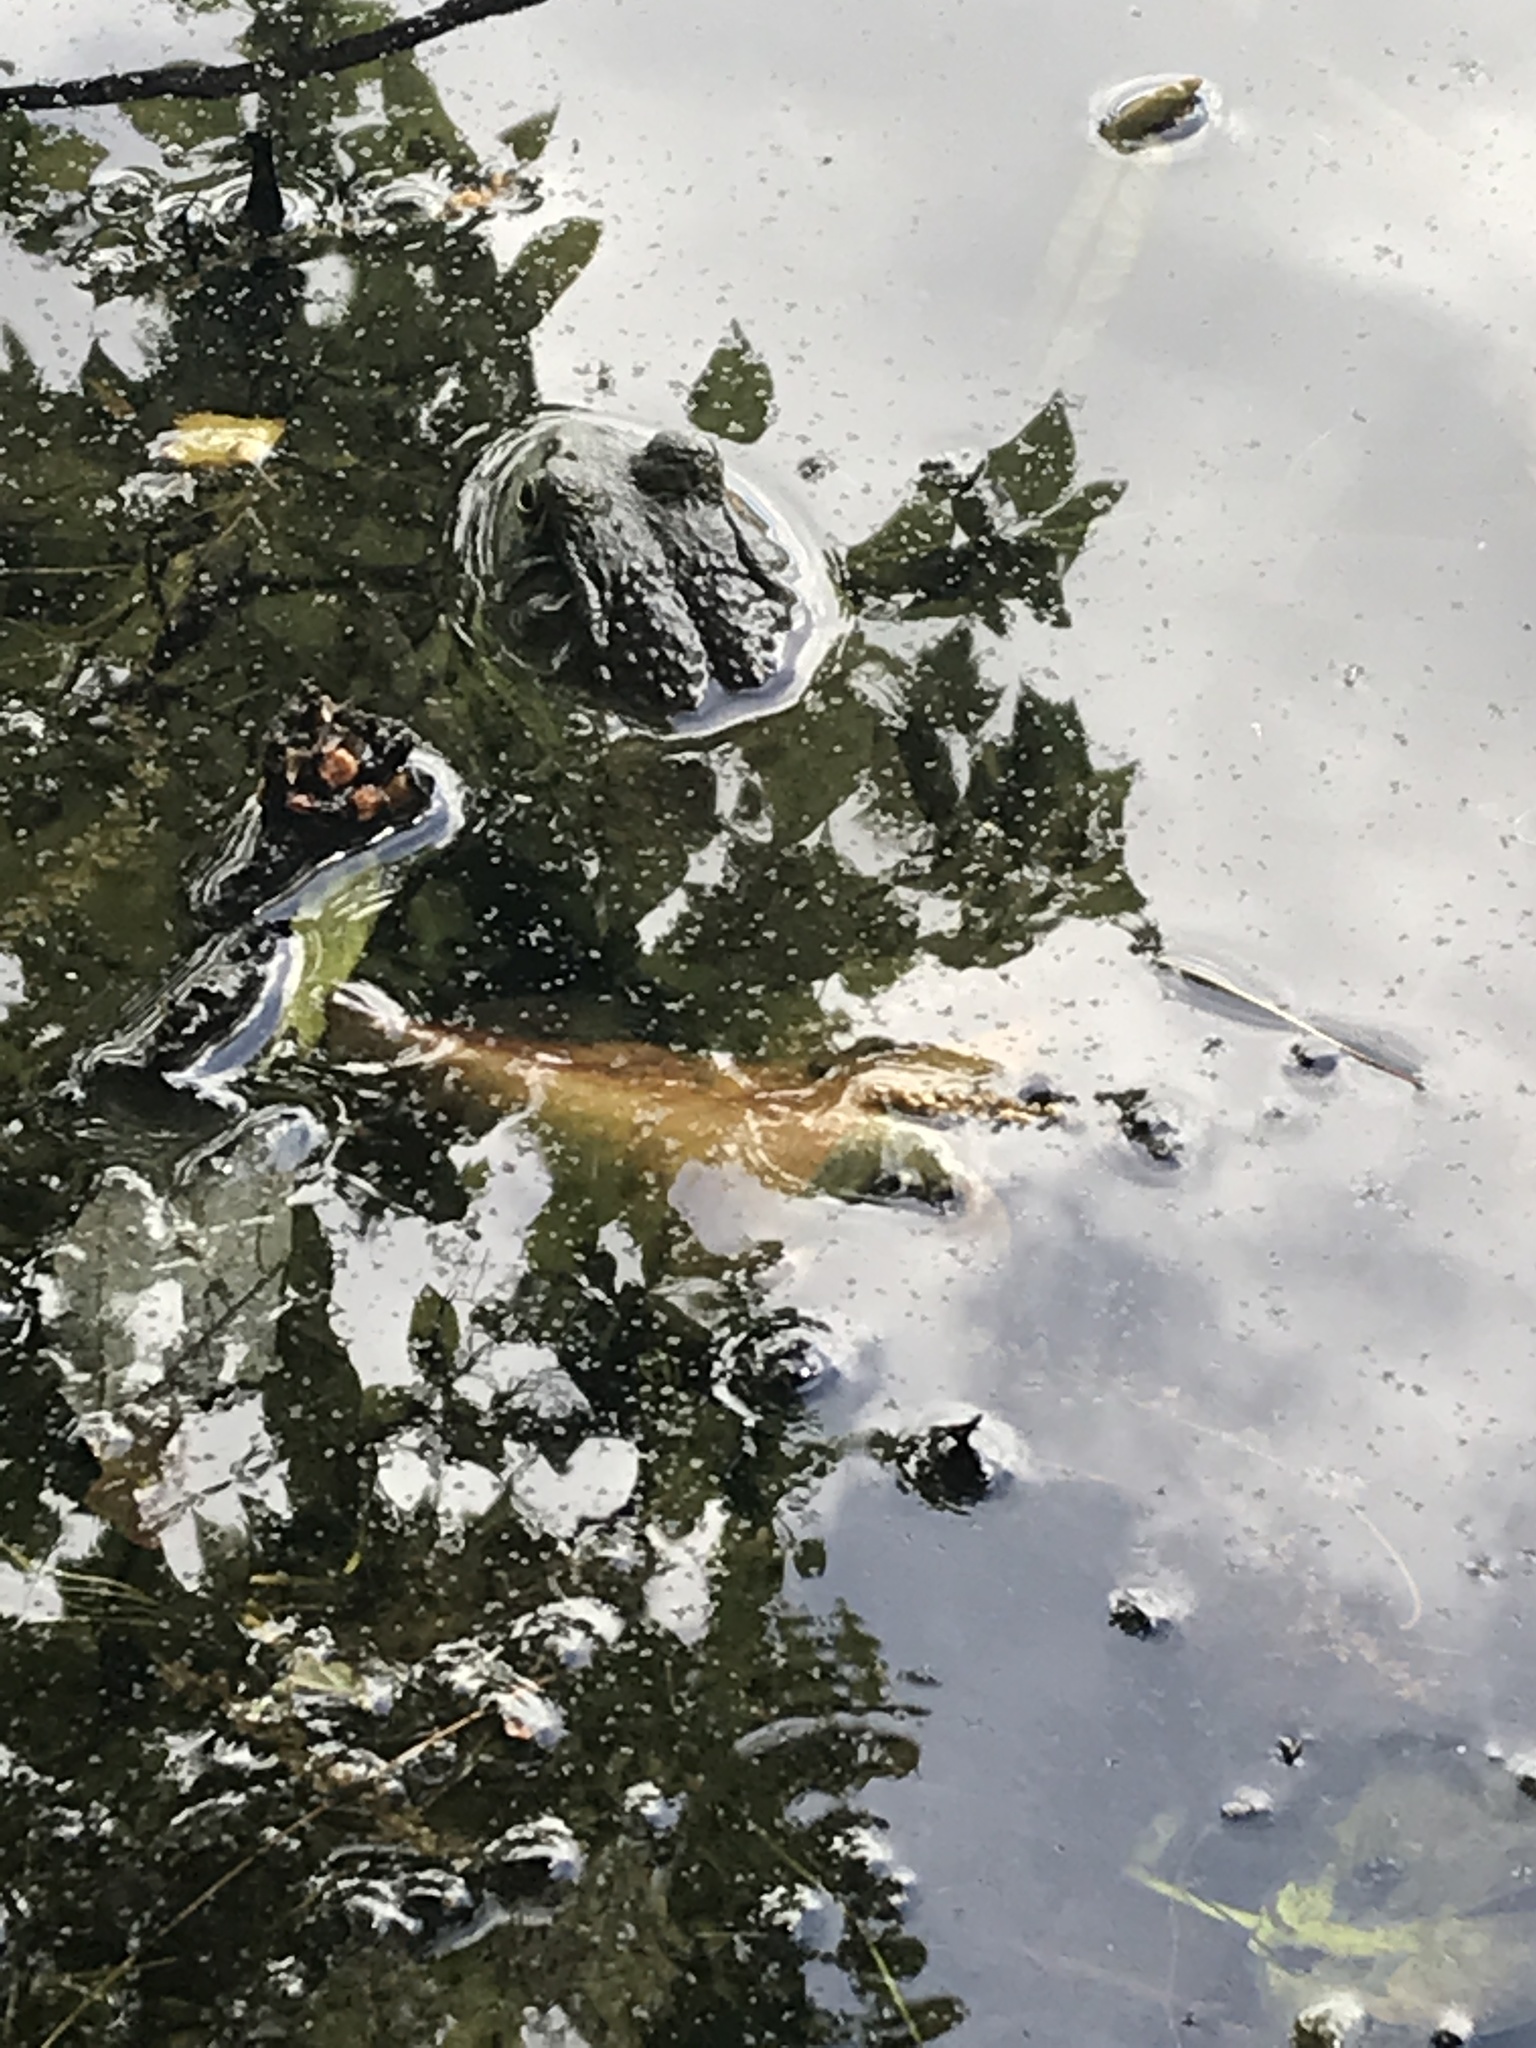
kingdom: Animalia
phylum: Chordata
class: Amphibia
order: Anura
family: Ranidae
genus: Lithobates
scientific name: Lithobates catesbeianus
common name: American bullfrog
